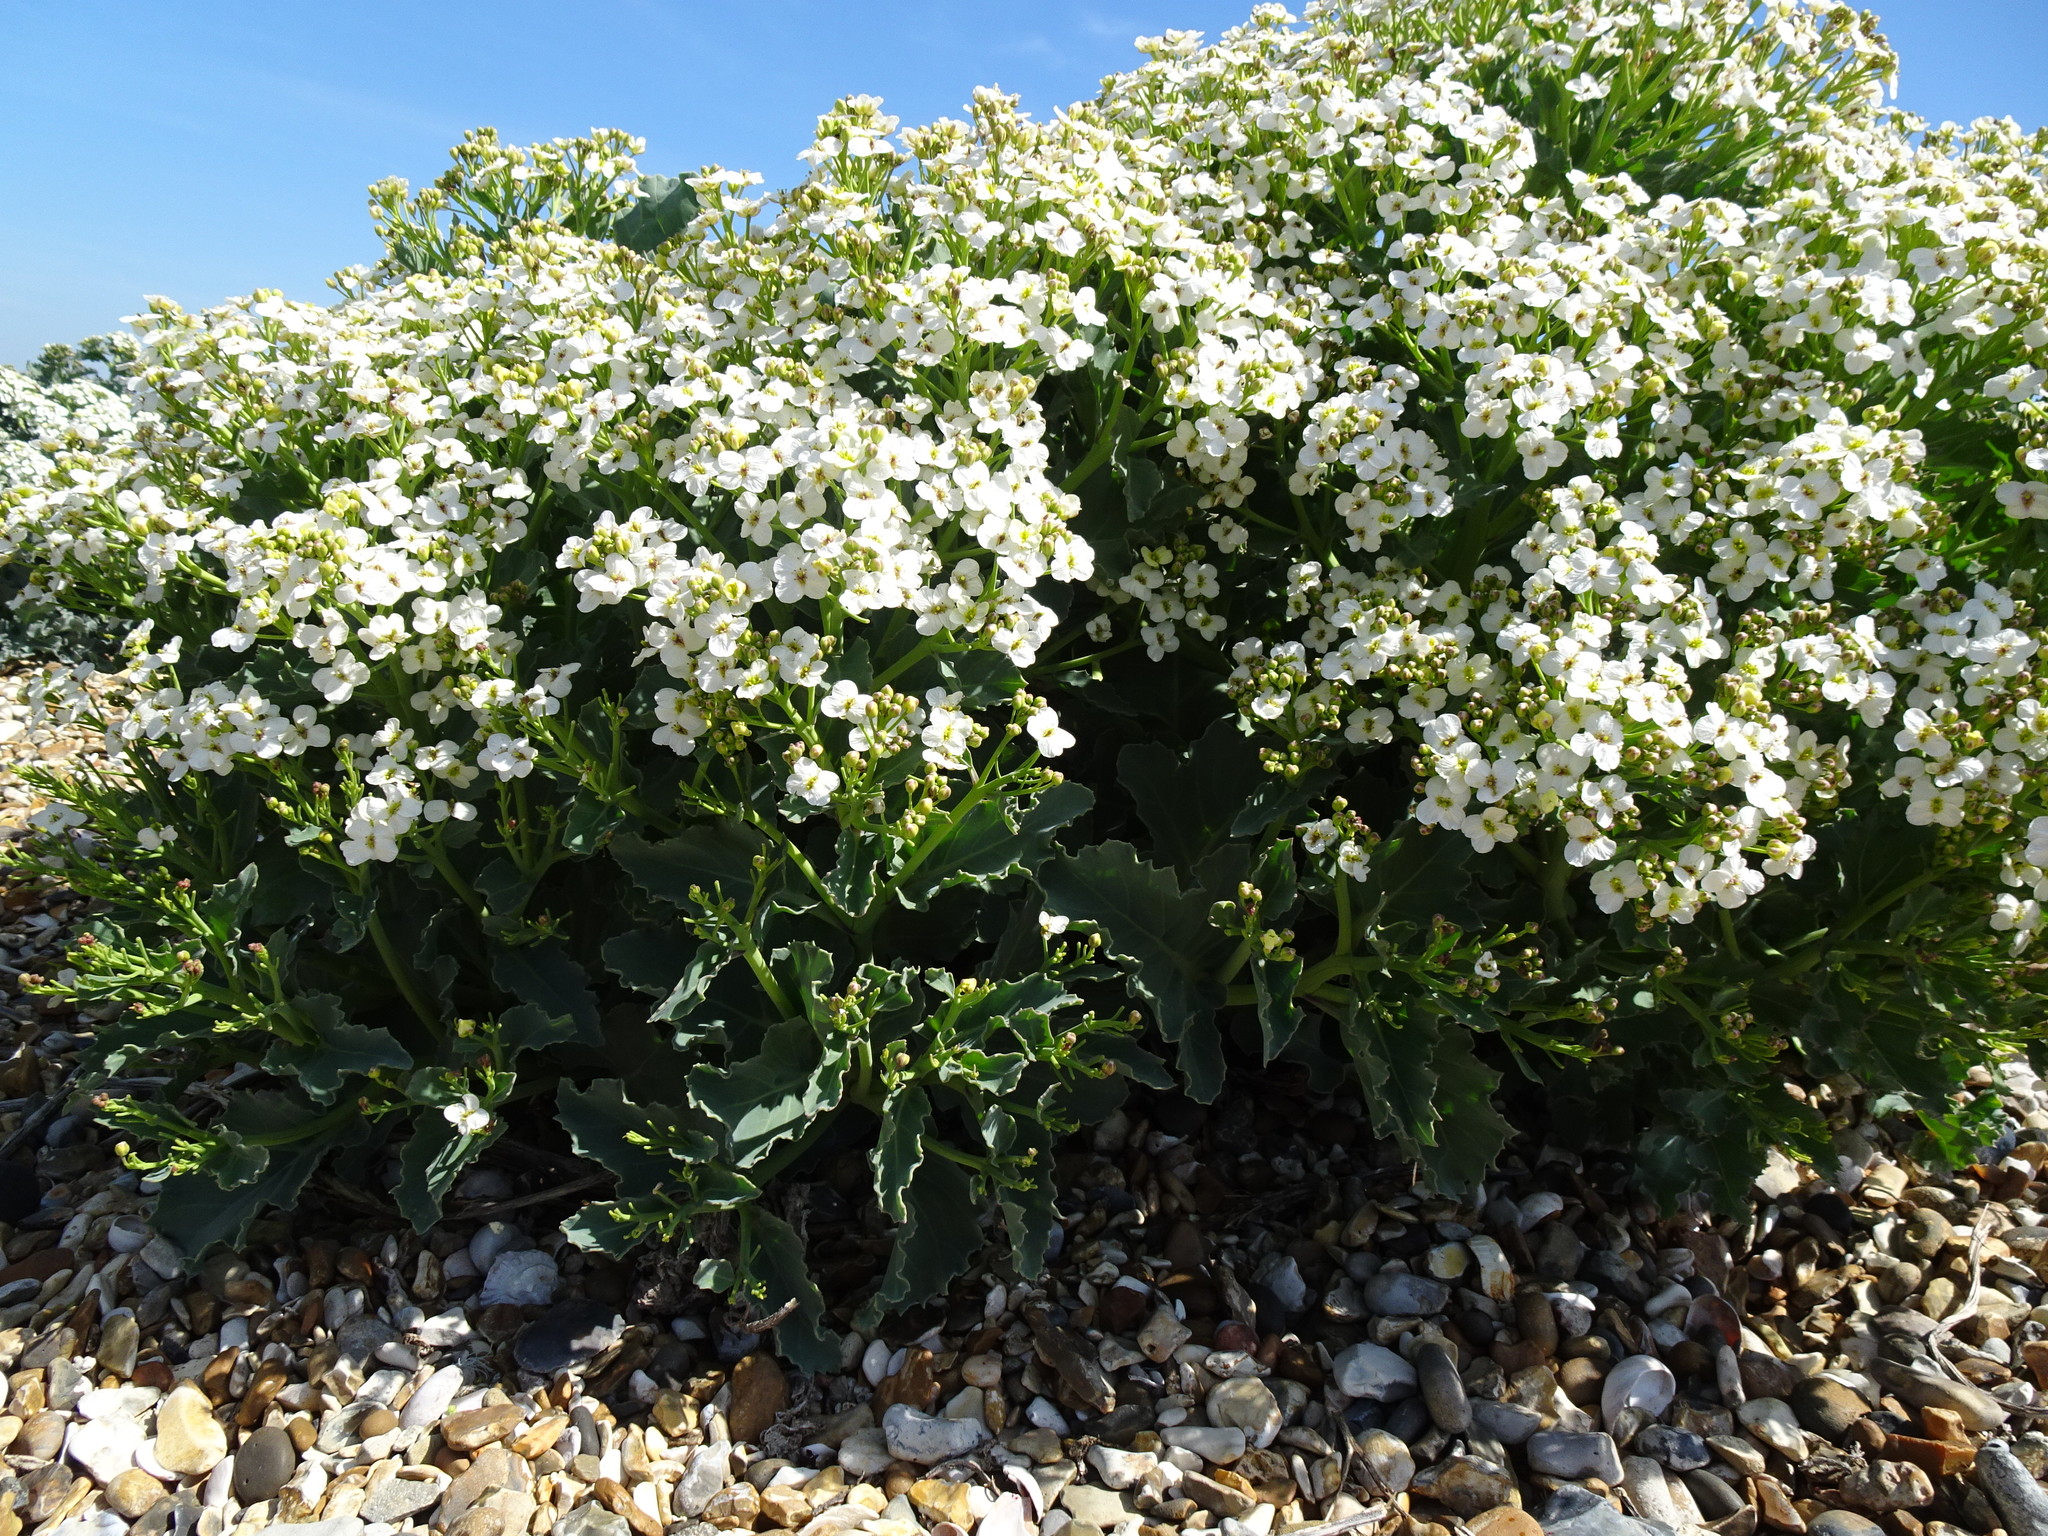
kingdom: Plantae
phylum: Tracheophyta
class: Magnoliopsida
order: Brassicales
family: Brassicaceae
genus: Crambe
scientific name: Crambe maritima
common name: Sea-kale
